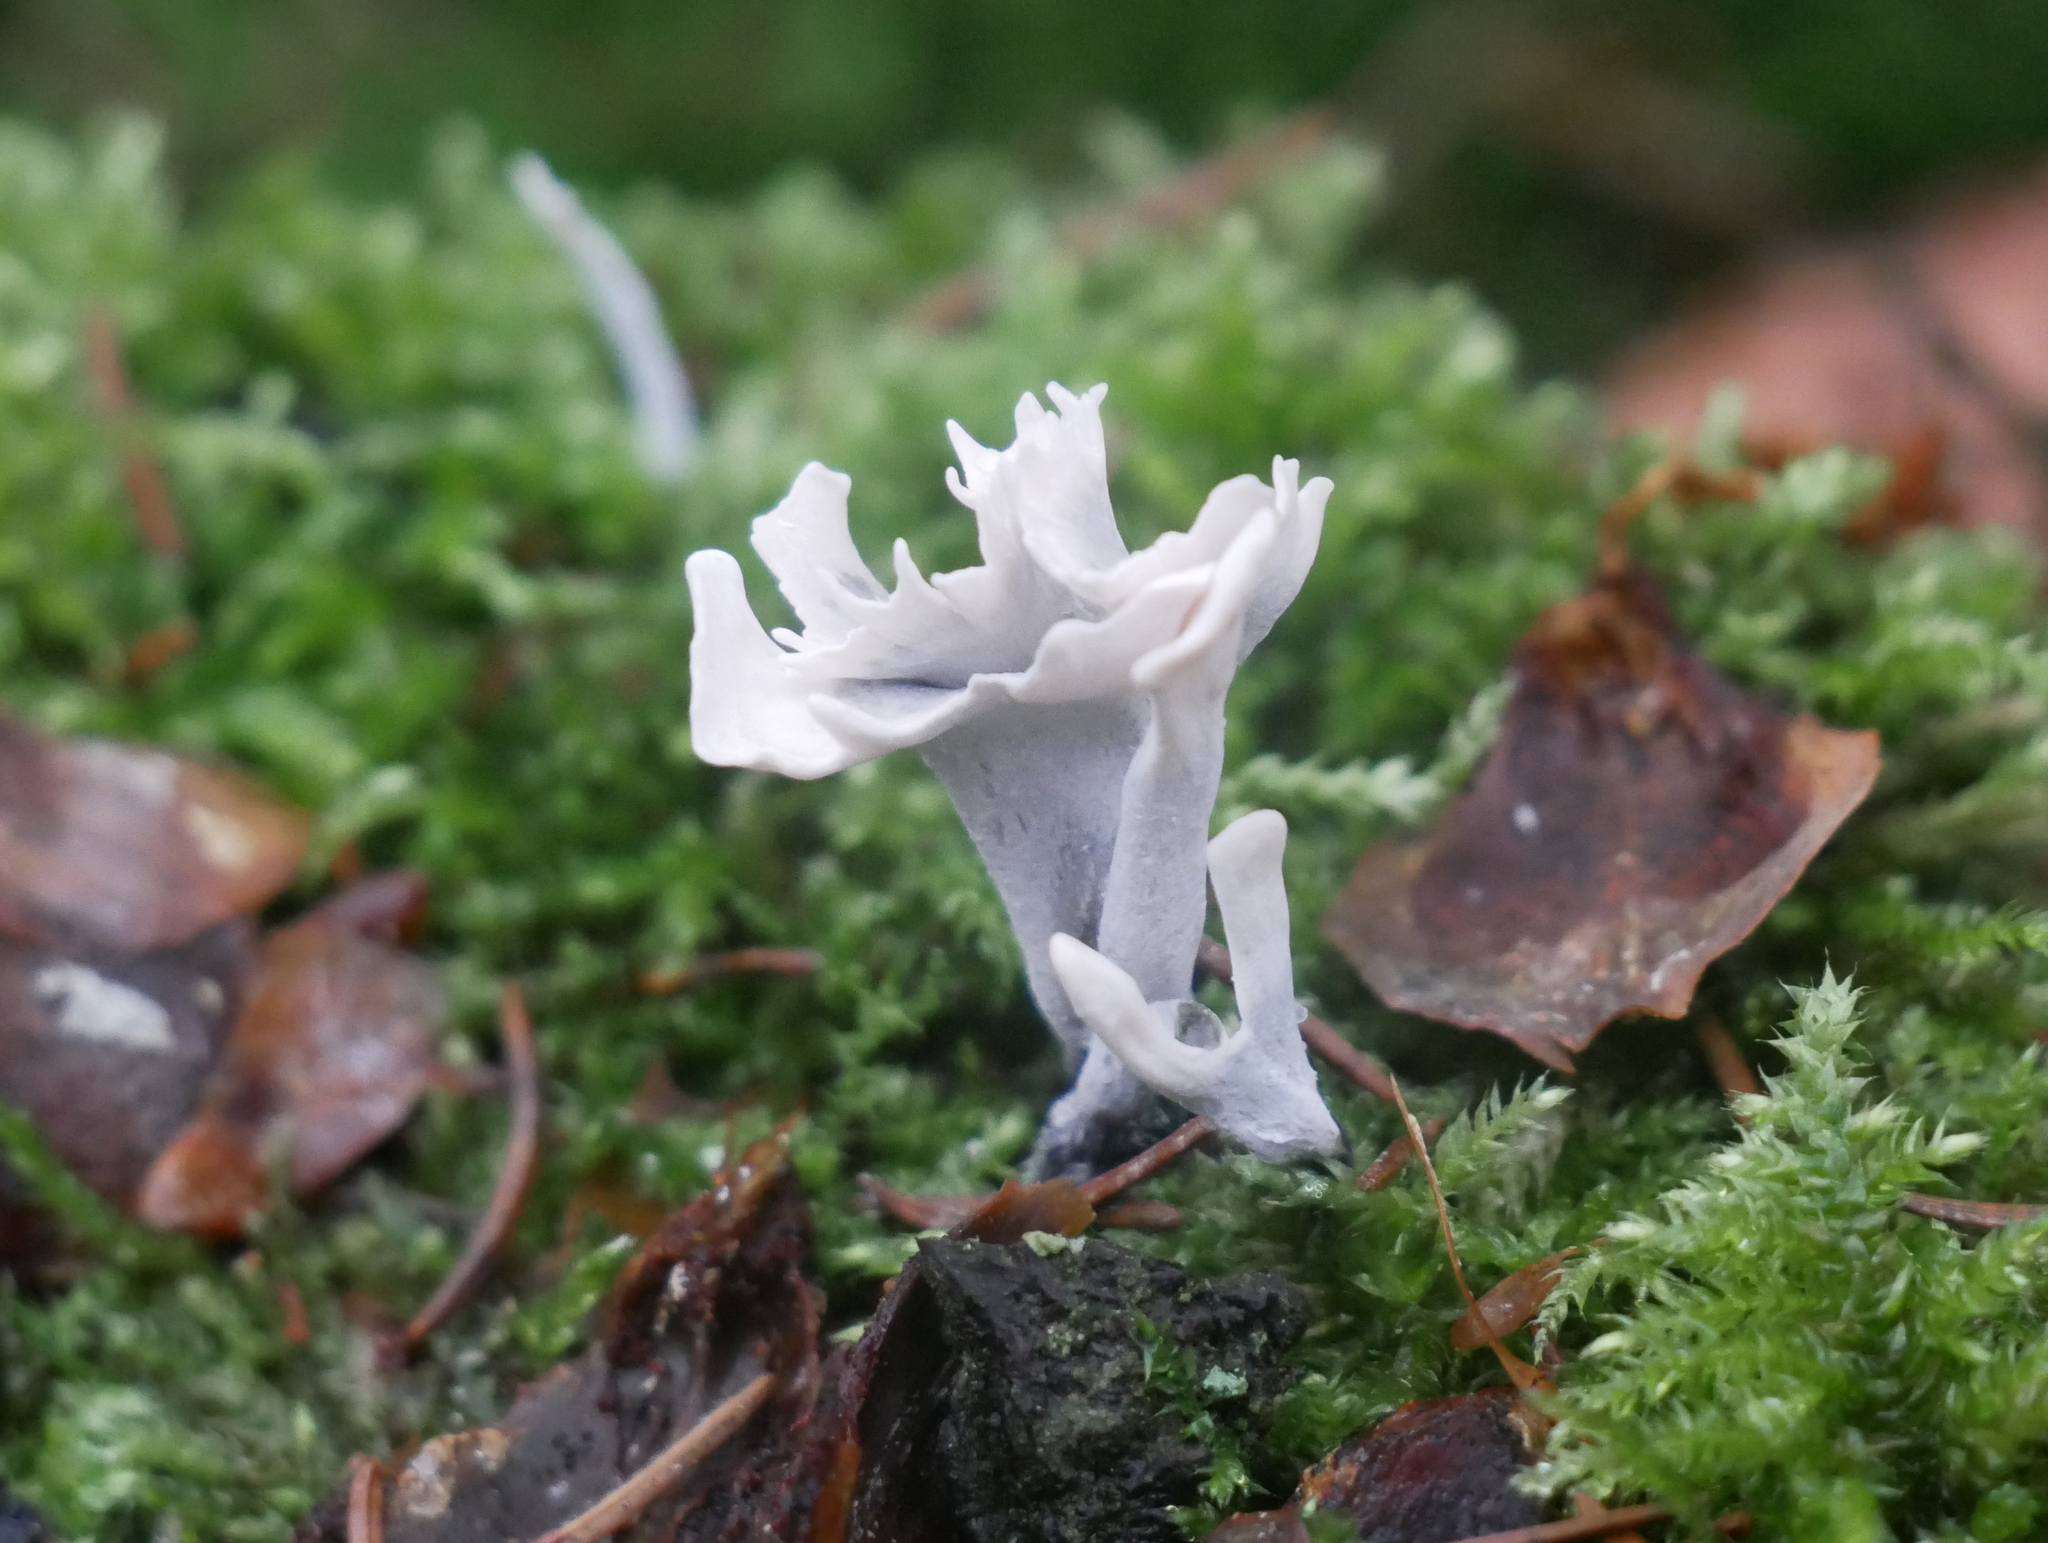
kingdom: Fungi
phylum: Ascomycota
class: Sordariomycetes
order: Xylariales
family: Xylariaceae
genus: Xylaria
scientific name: Xylaria hypoxylon
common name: Candle-snuff fungus
